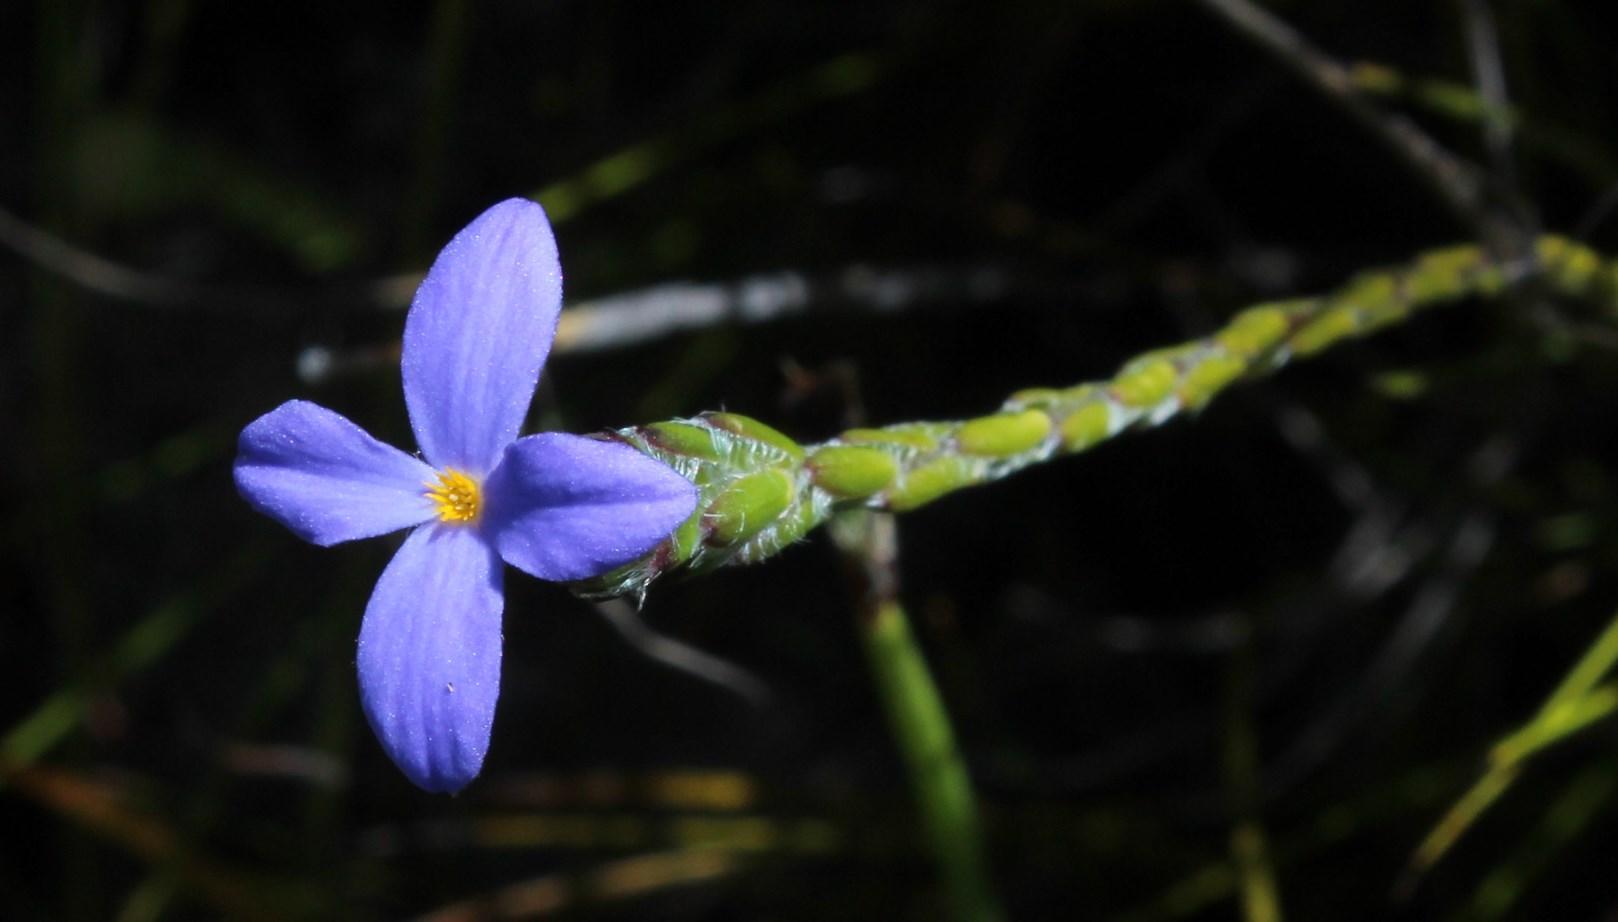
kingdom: Plantae
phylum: Tracheophyta
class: Magnoliopsida
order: Malvales
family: Thymelaeaceae
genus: Gnidia
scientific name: Gnidia penicillata
